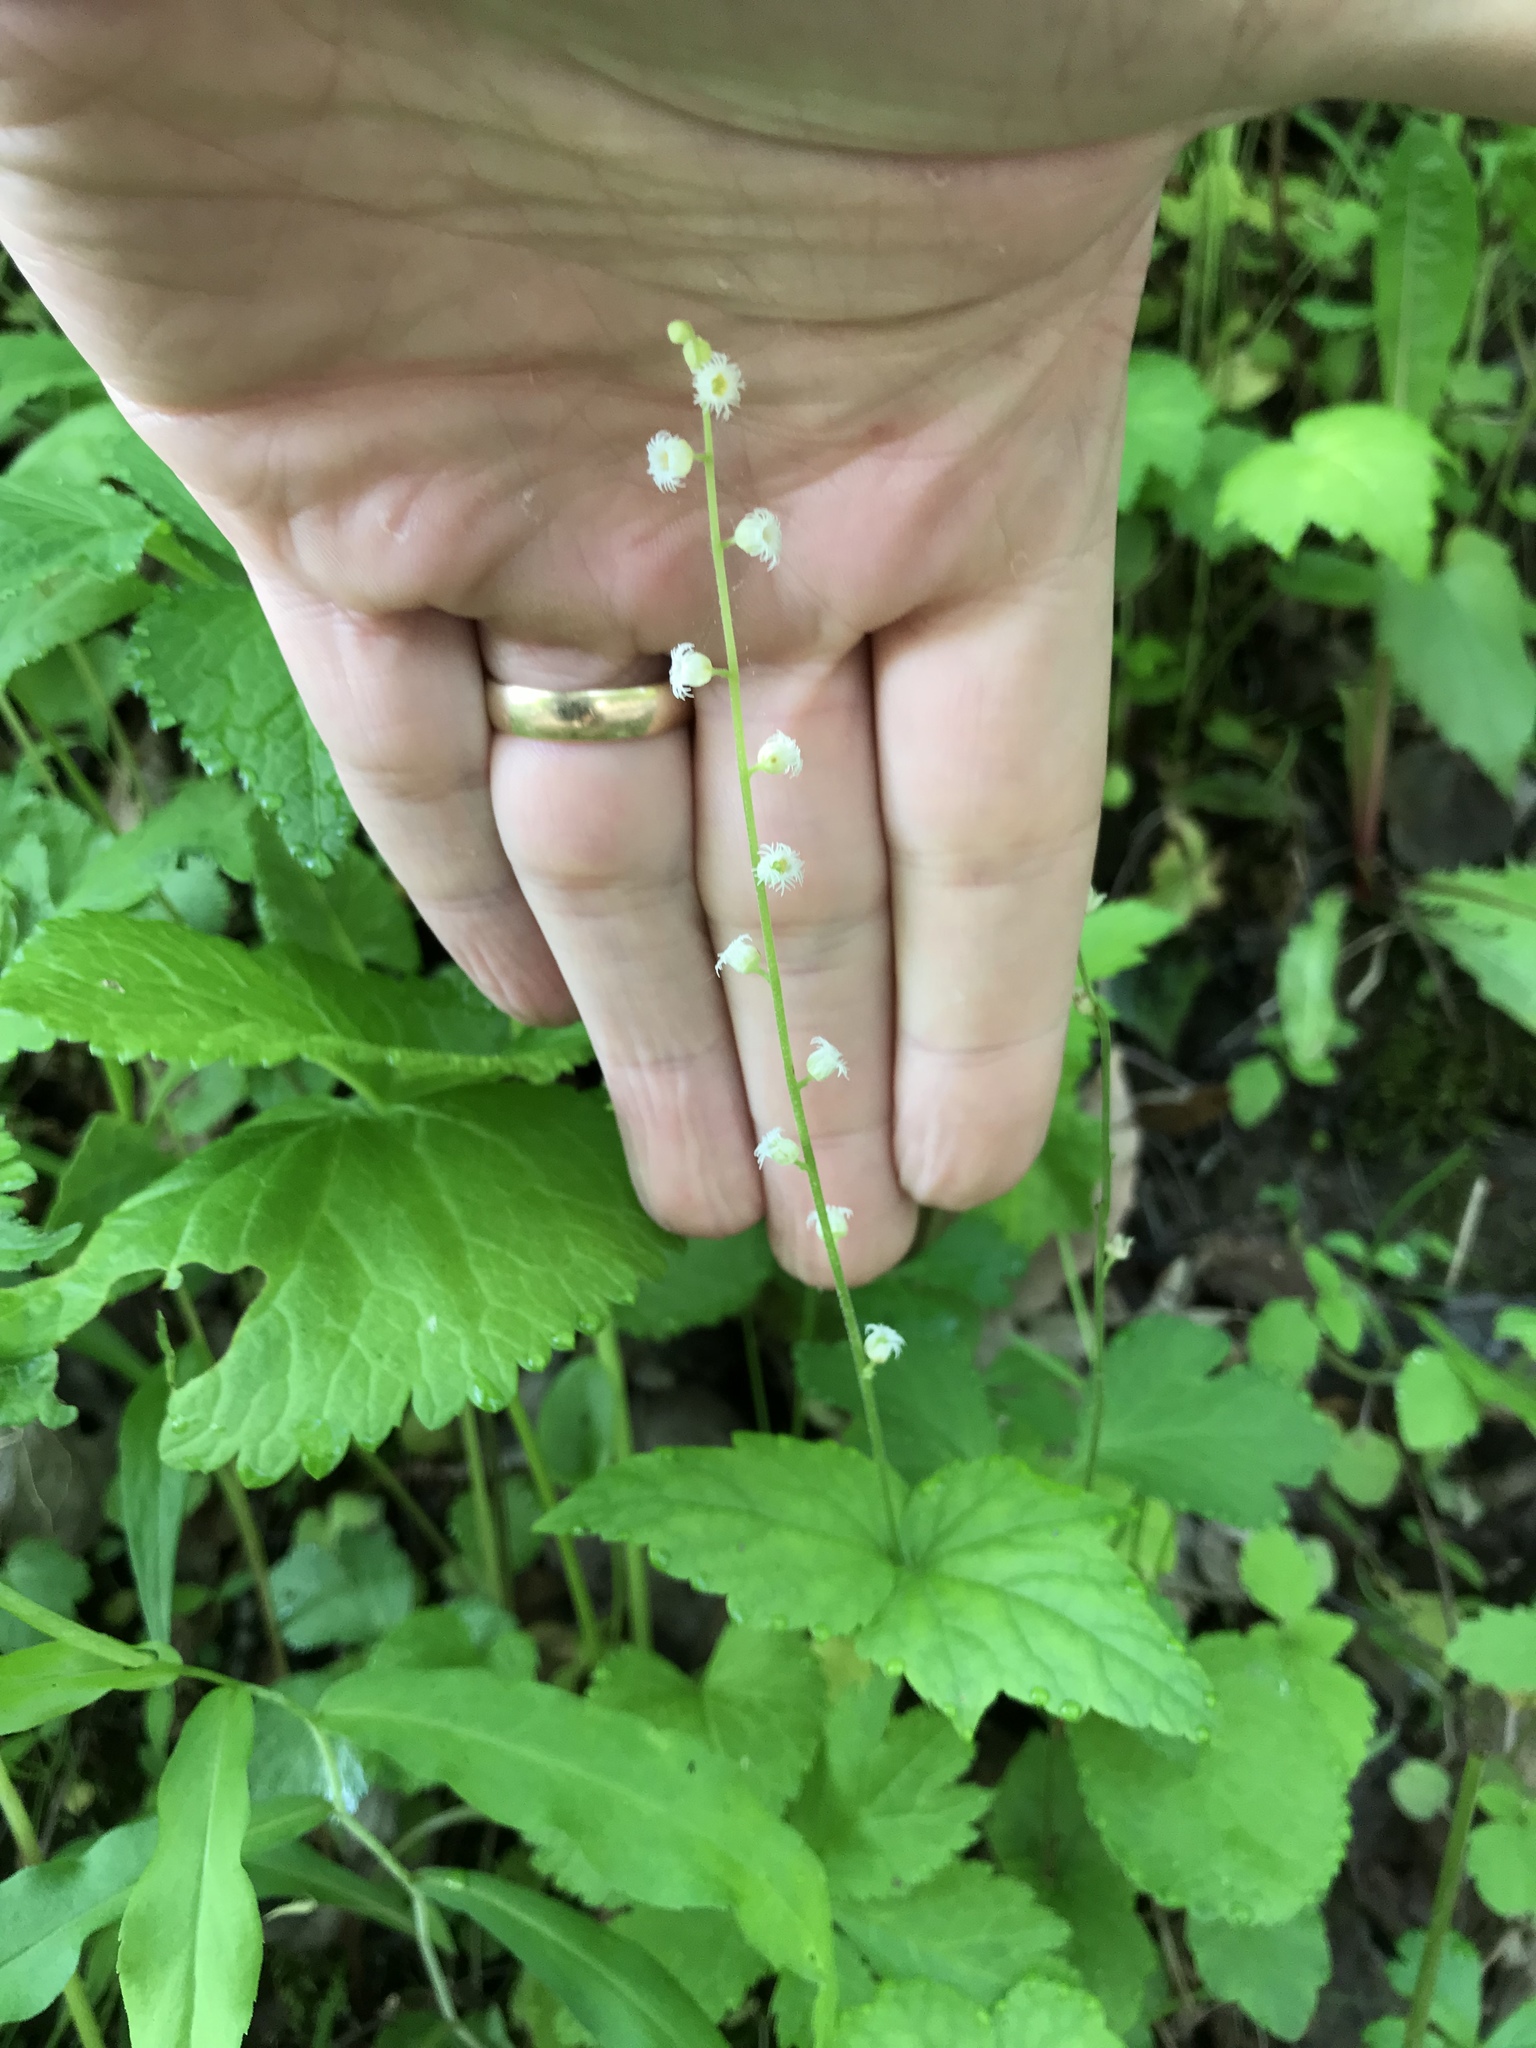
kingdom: Plantae
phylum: Tracheophyta
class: Magnoliopsida
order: Saxifragales
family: Saxifragaceae
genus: Mitella
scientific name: Mitella diphylla
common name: Coolwort
